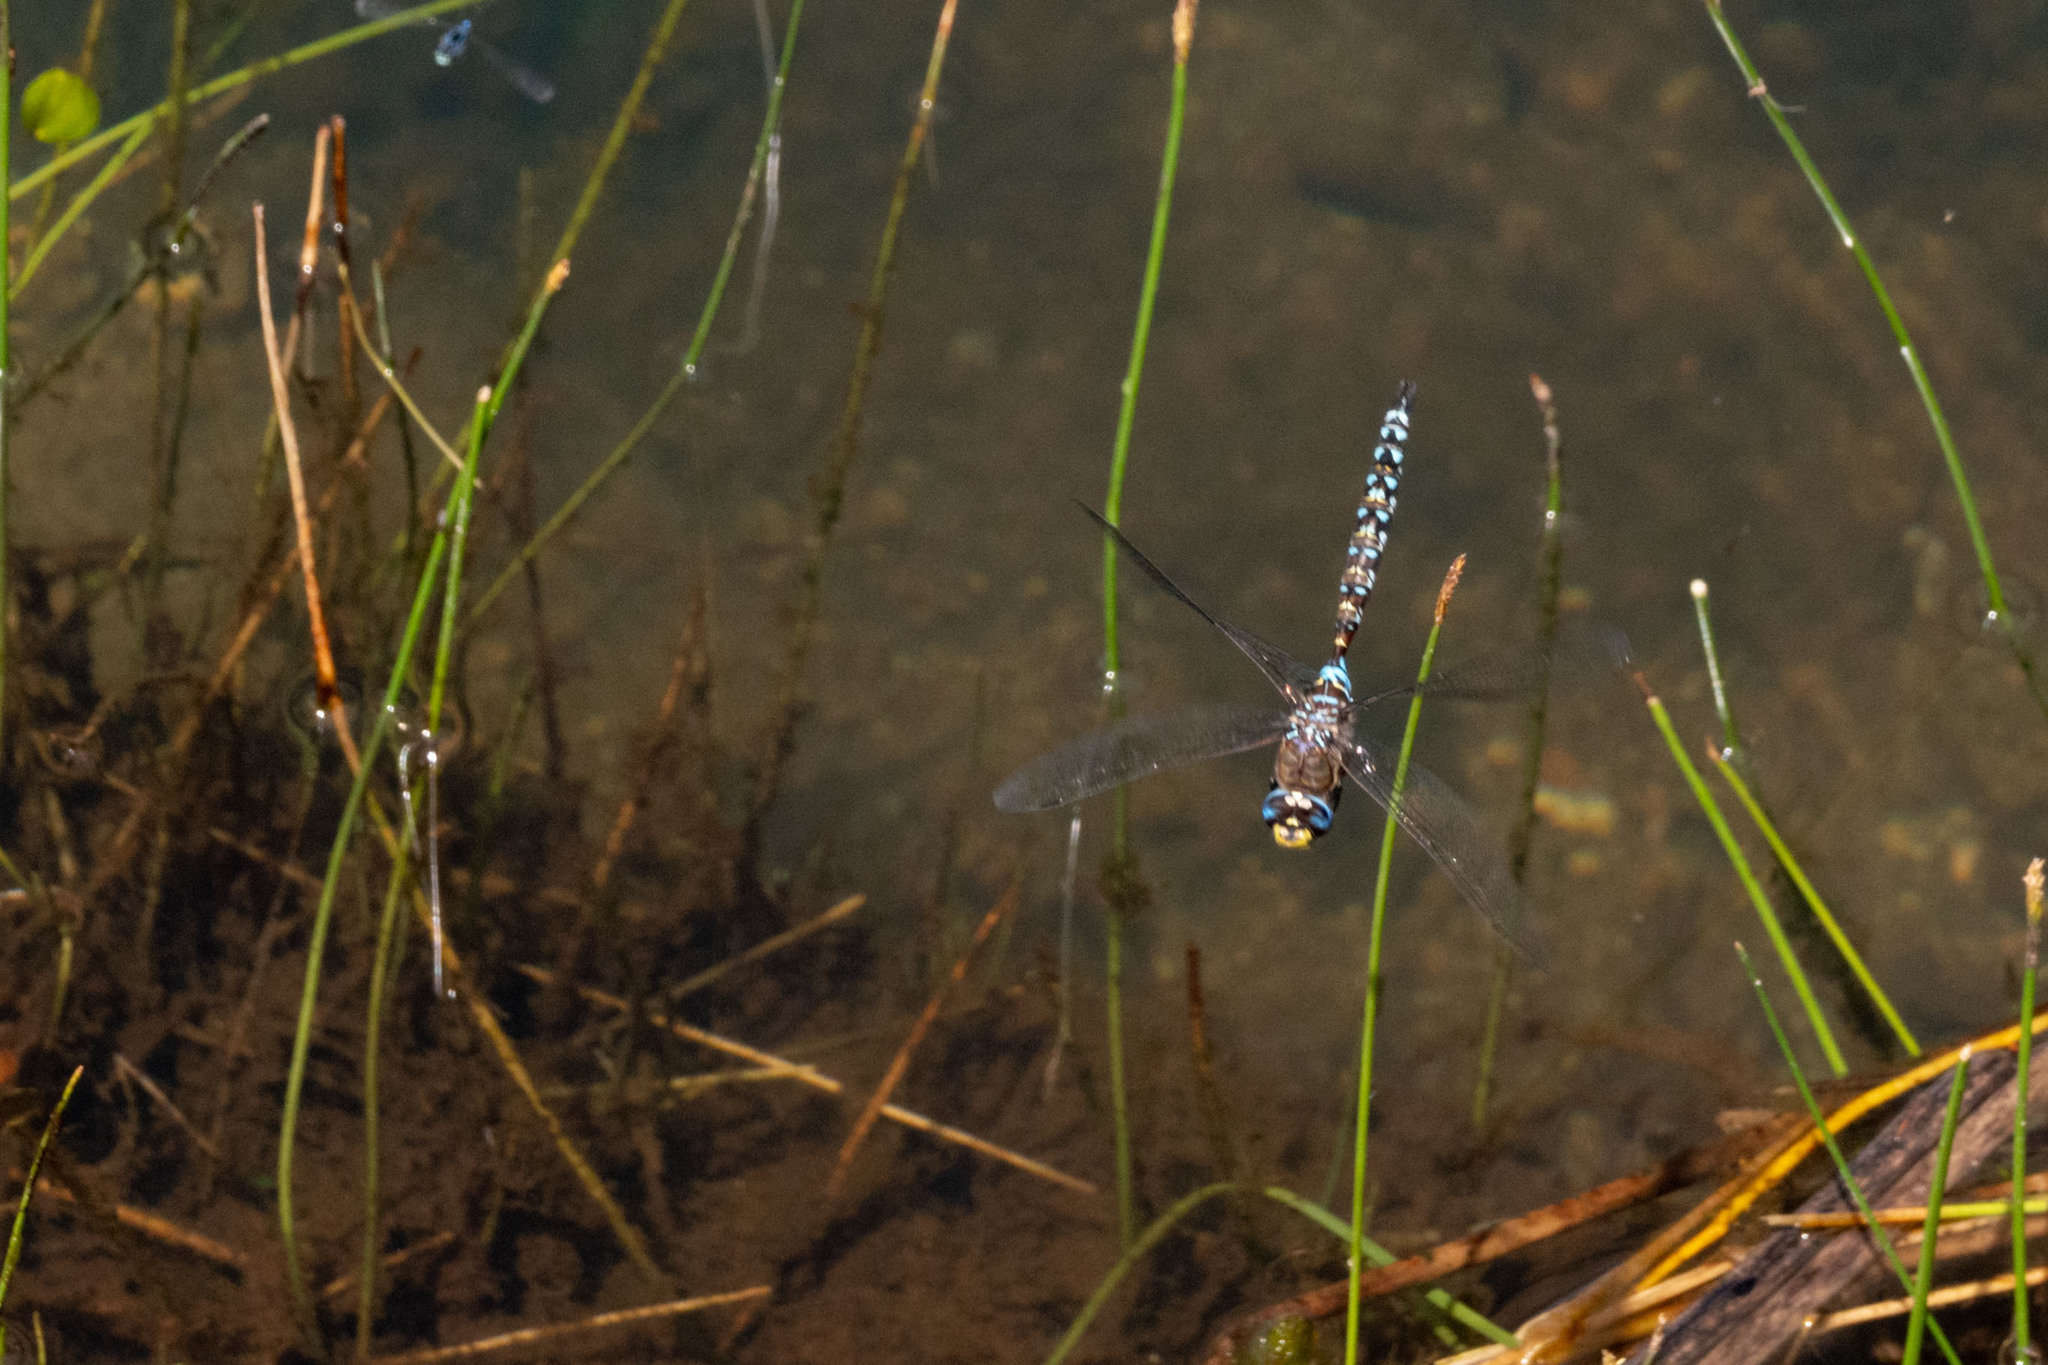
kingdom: Animalia
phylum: Arthropoda
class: Insecta
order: Odonata
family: Aeshnidae
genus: Rhionaeschna
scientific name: Rhionaeschna variegata
